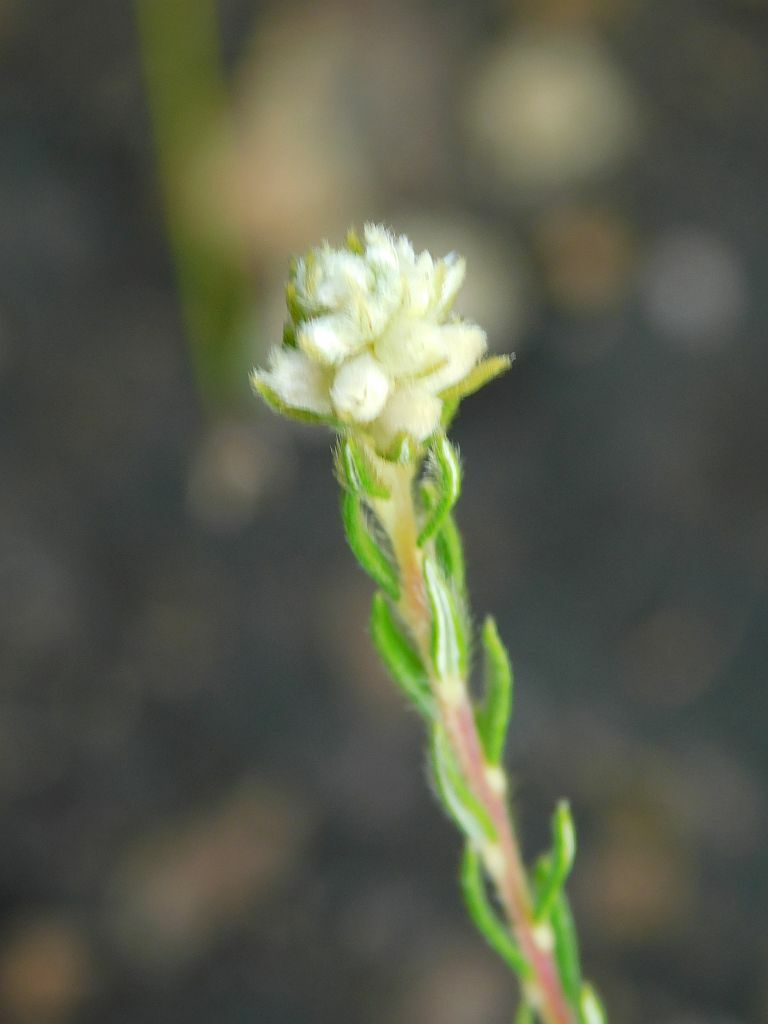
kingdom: Plantae
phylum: Tracheophyta
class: Magnoliopsida
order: Rosales
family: Rhamnaceae
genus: Phylica
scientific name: Phylica imberbis
